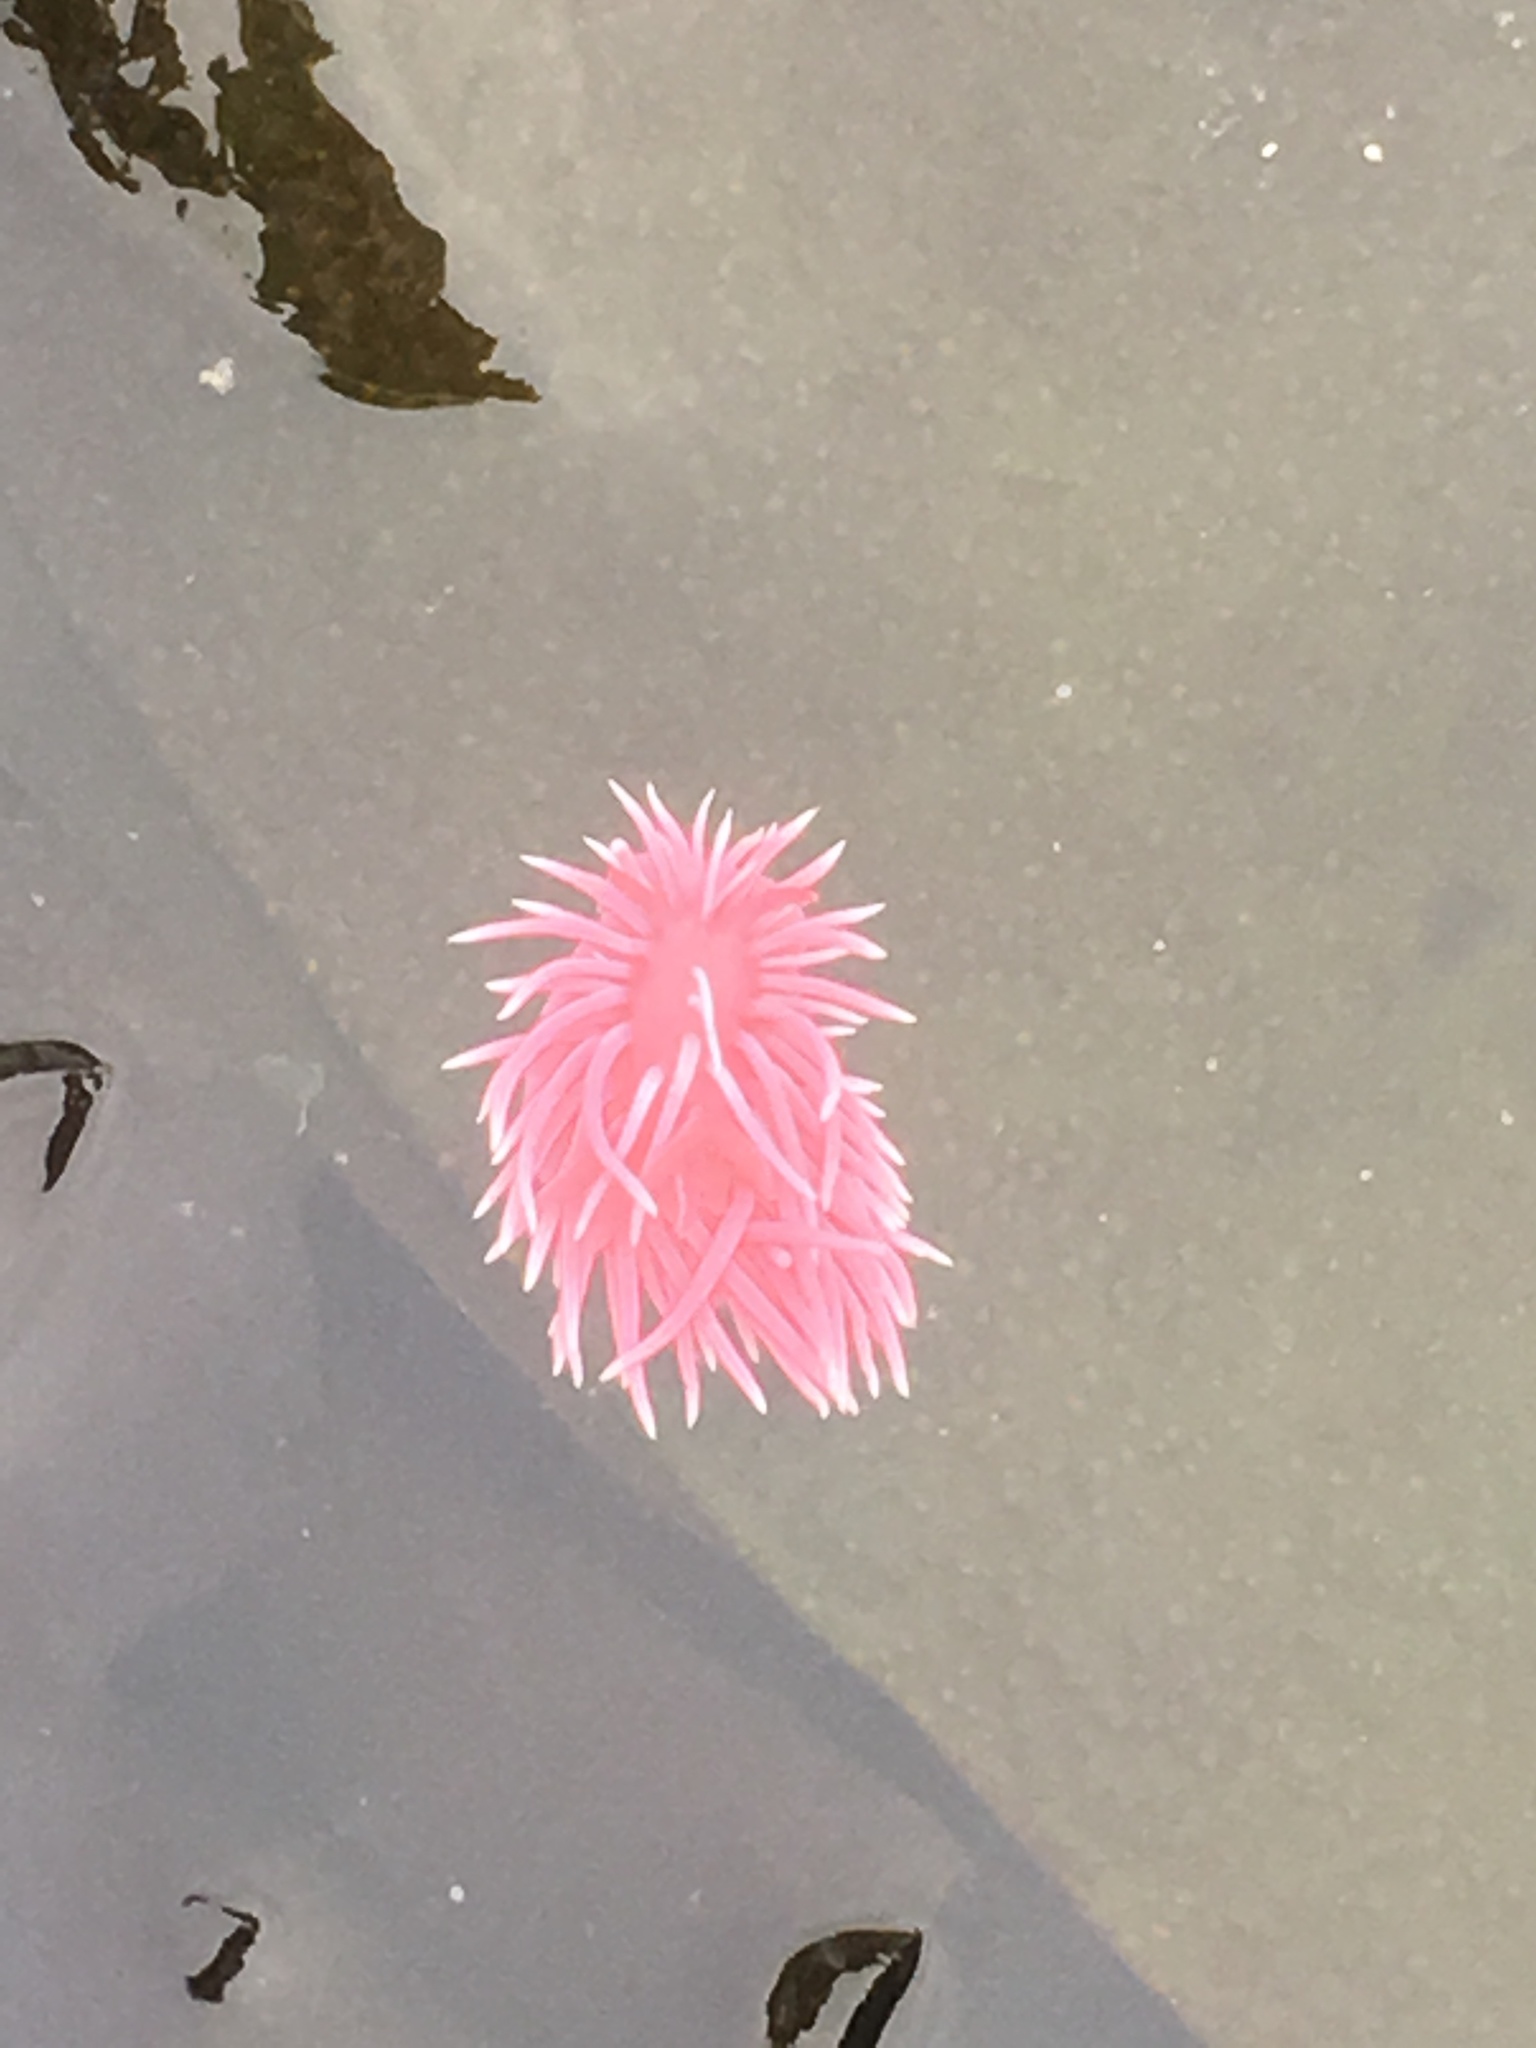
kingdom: Animalia
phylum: Mollusca
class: Gastropoda
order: Nudibranchia
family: Goniodorididae
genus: Okenia
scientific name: Okenia
